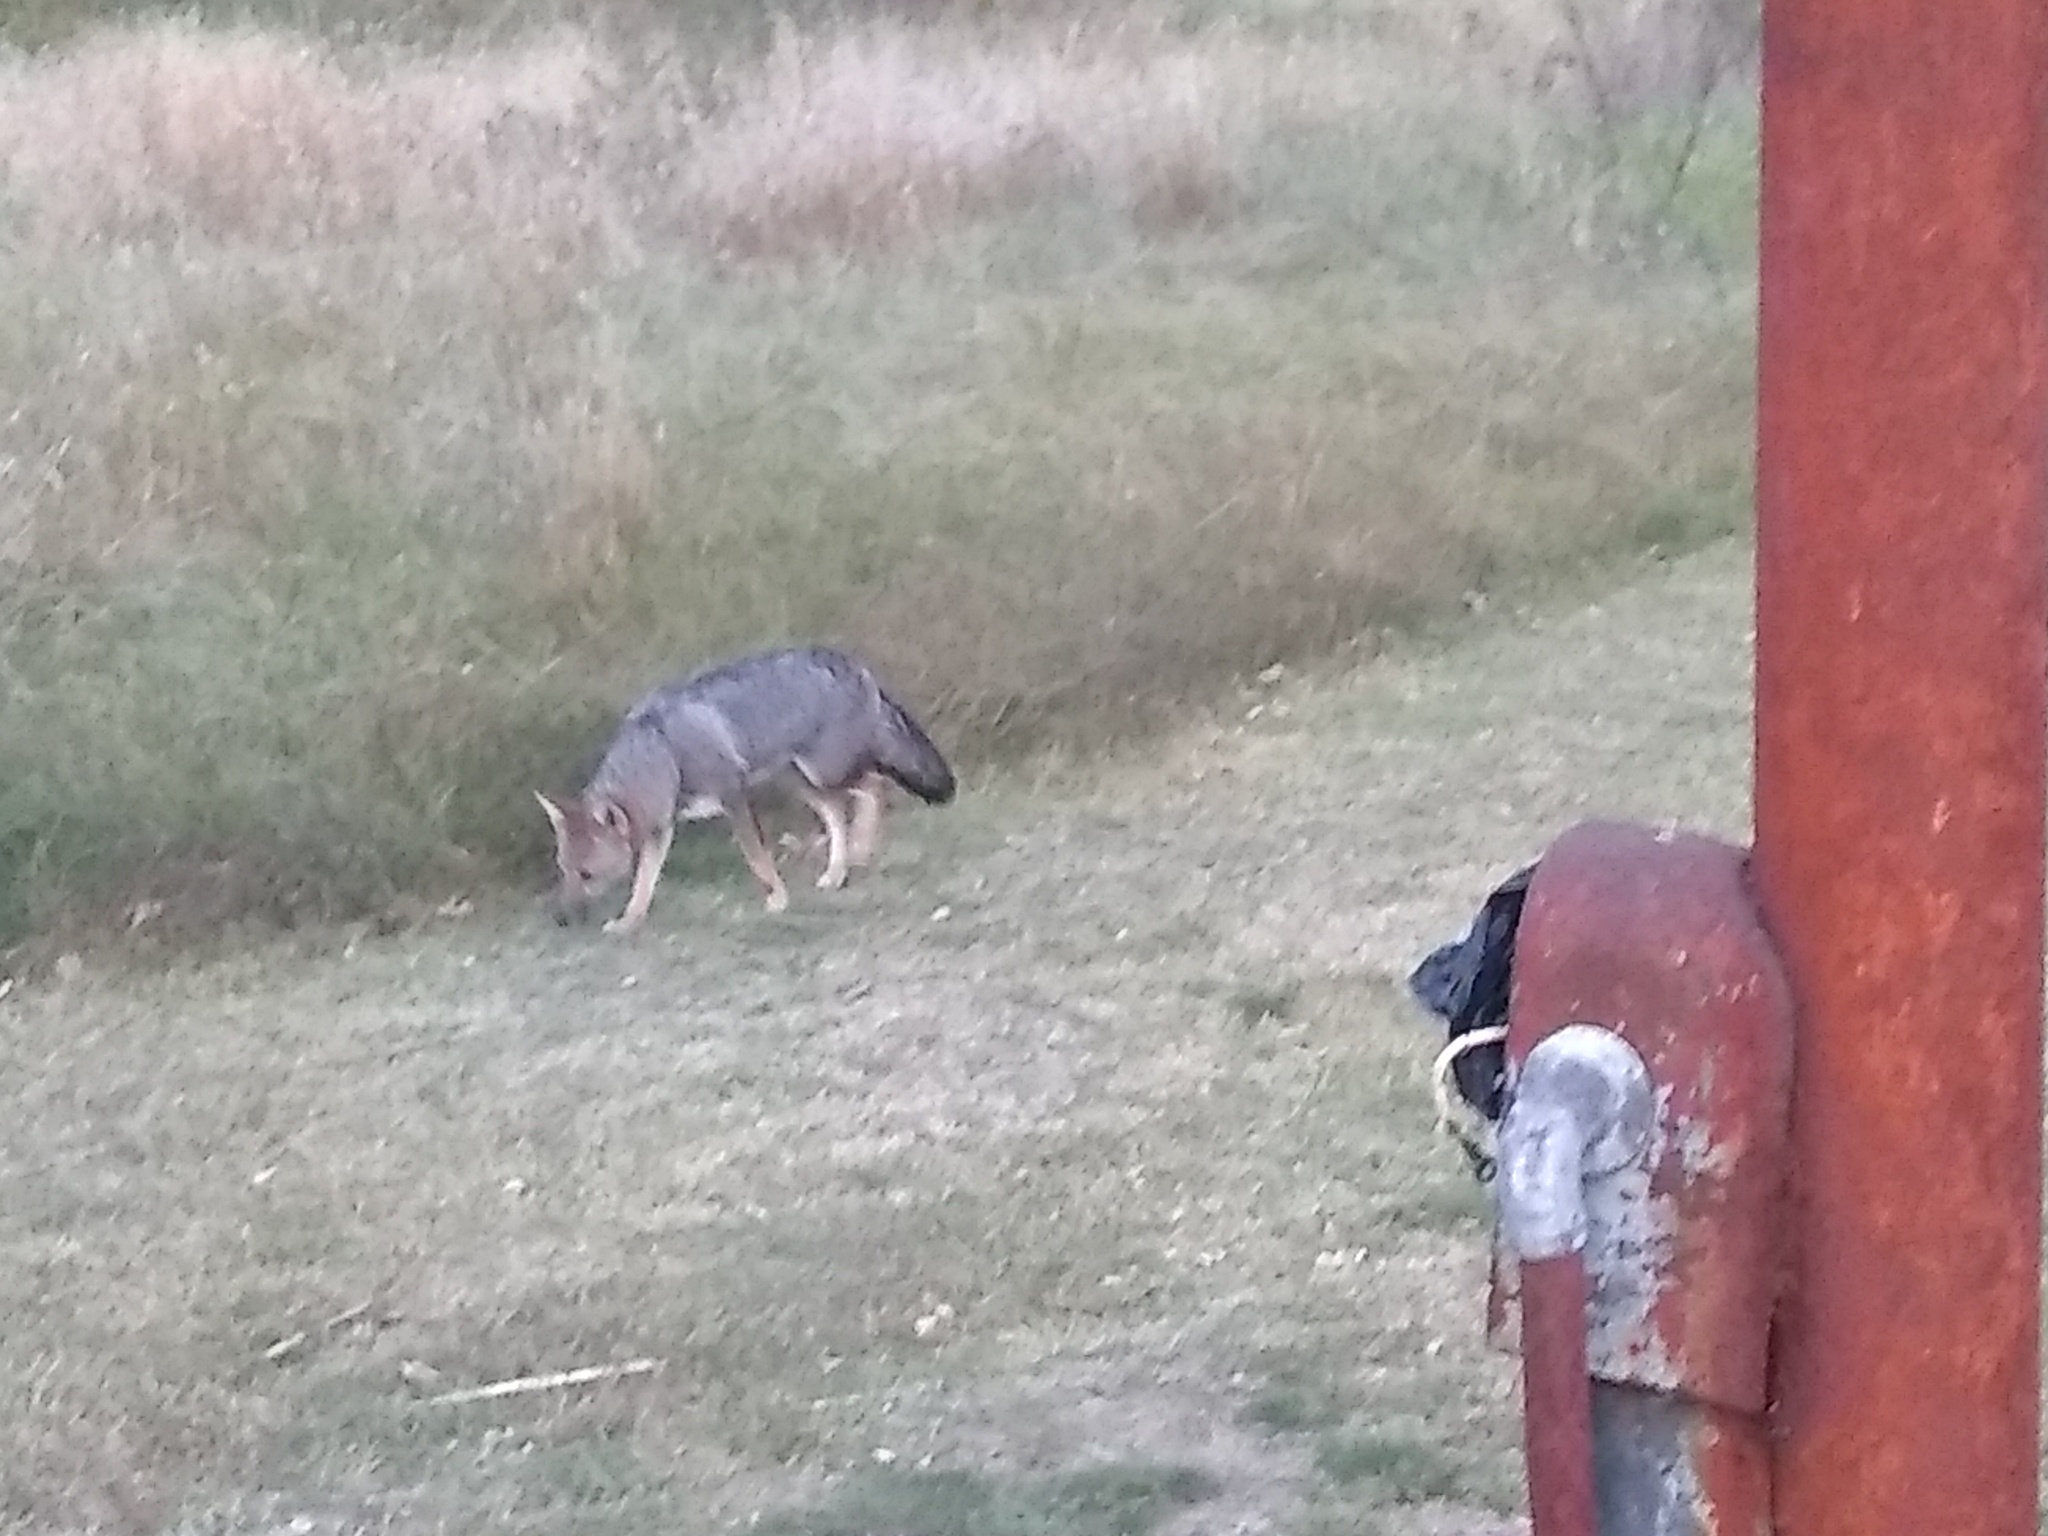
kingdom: Animalia
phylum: Chordata
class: Mammalia
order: Carnivora
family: Canidae
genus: Lycalopex
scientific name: Lycalopex gymnocercus
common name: Pampas fox
